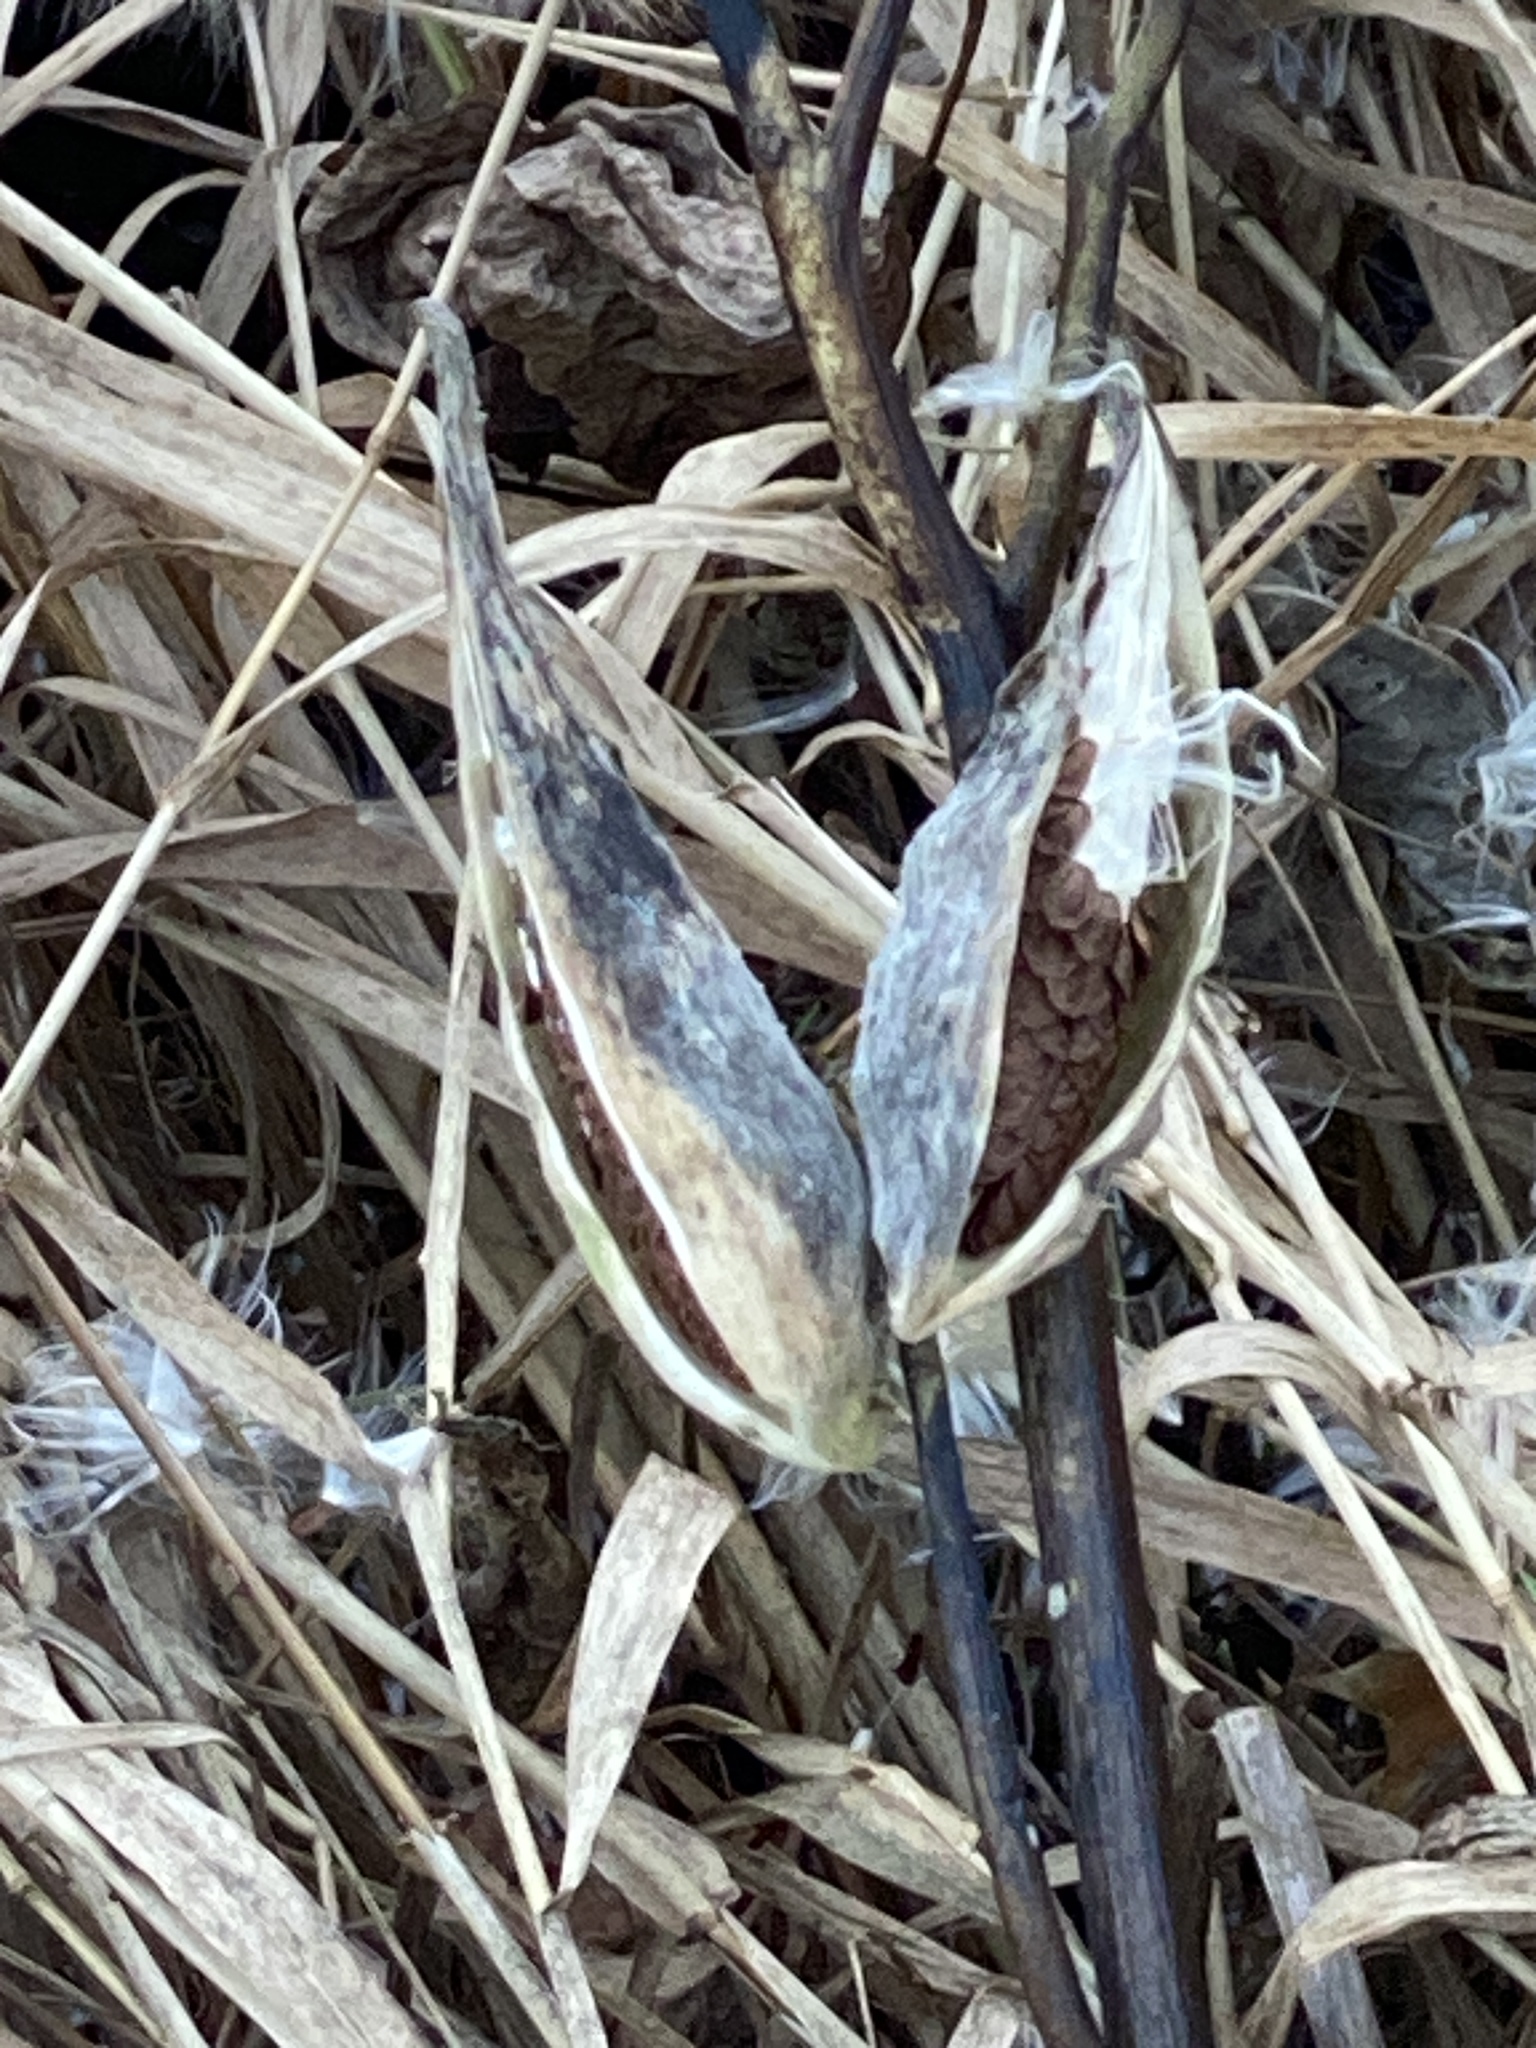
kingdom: Plantae
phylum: Tracheophyta
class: Magnoliopsida
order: Gentianales
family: Apocynaceae
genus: Asclepias
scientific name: Asclepias syriaca
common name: Common milkweed
